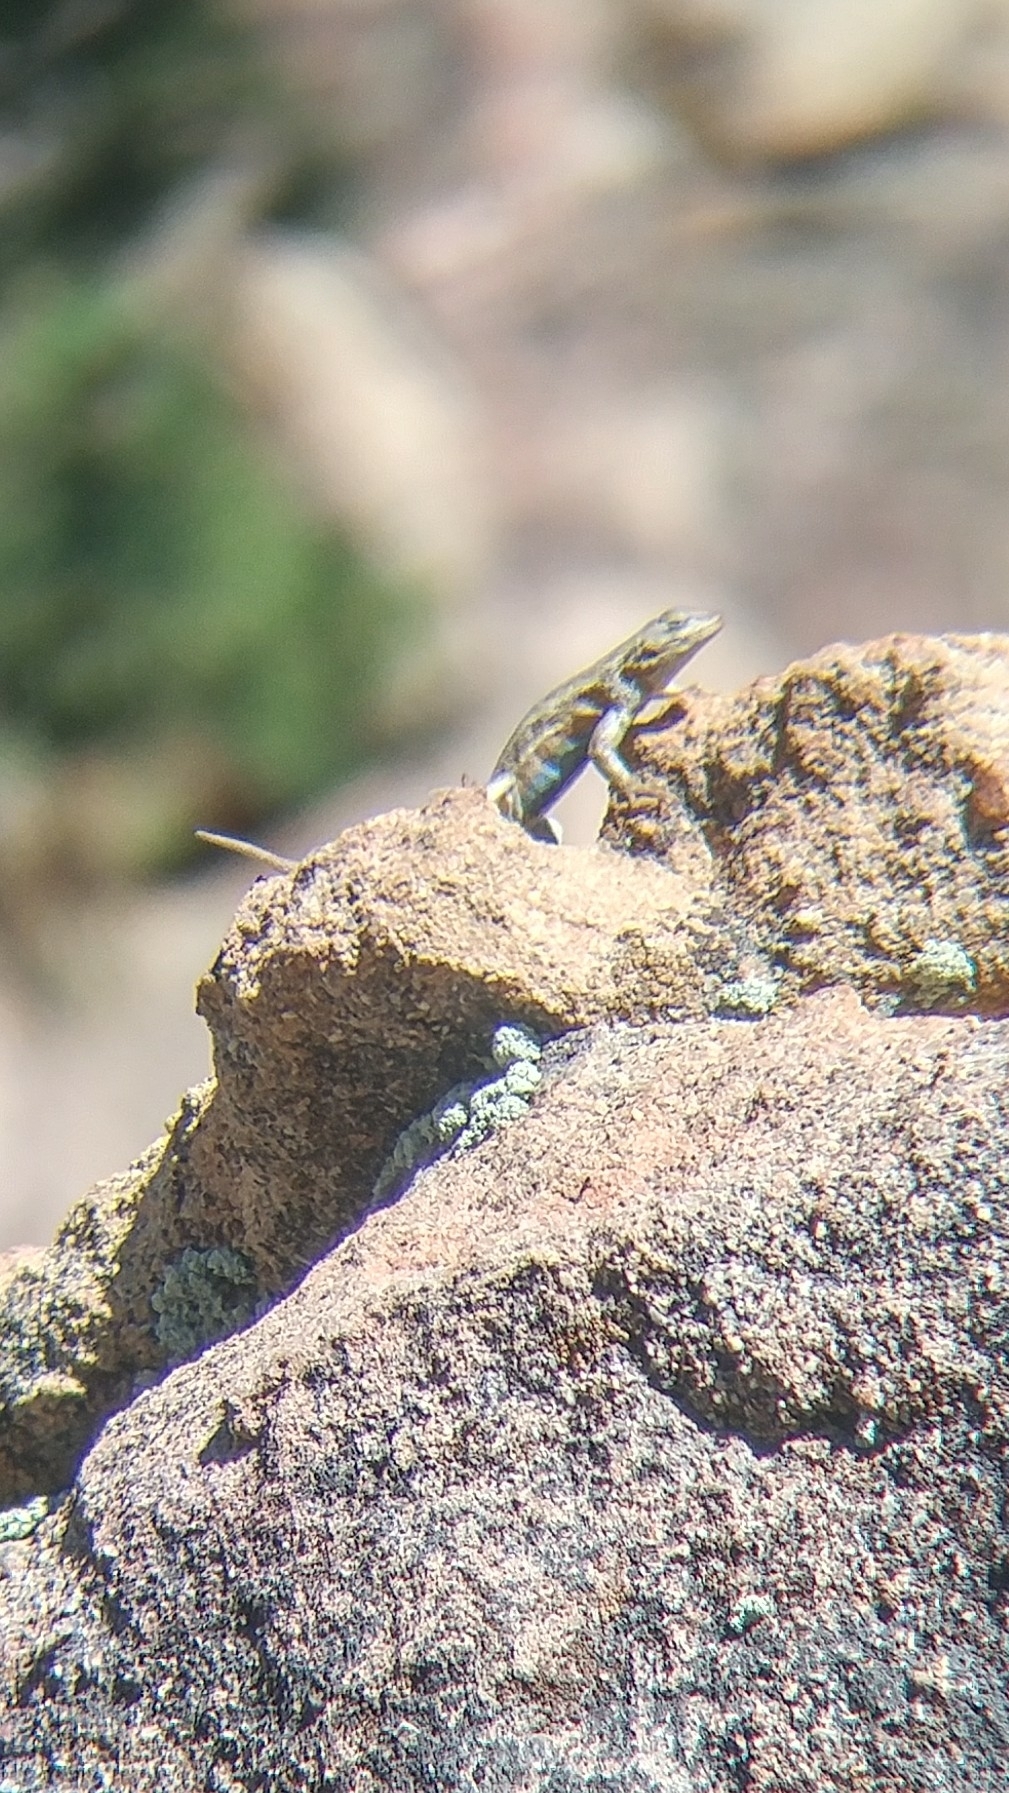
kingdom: Animalia
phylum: Chordata
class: Squamata
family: Phrynosomatidae
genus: Sceloporus
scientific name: Sceloporus graciosus
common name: Sagebrush lizard
